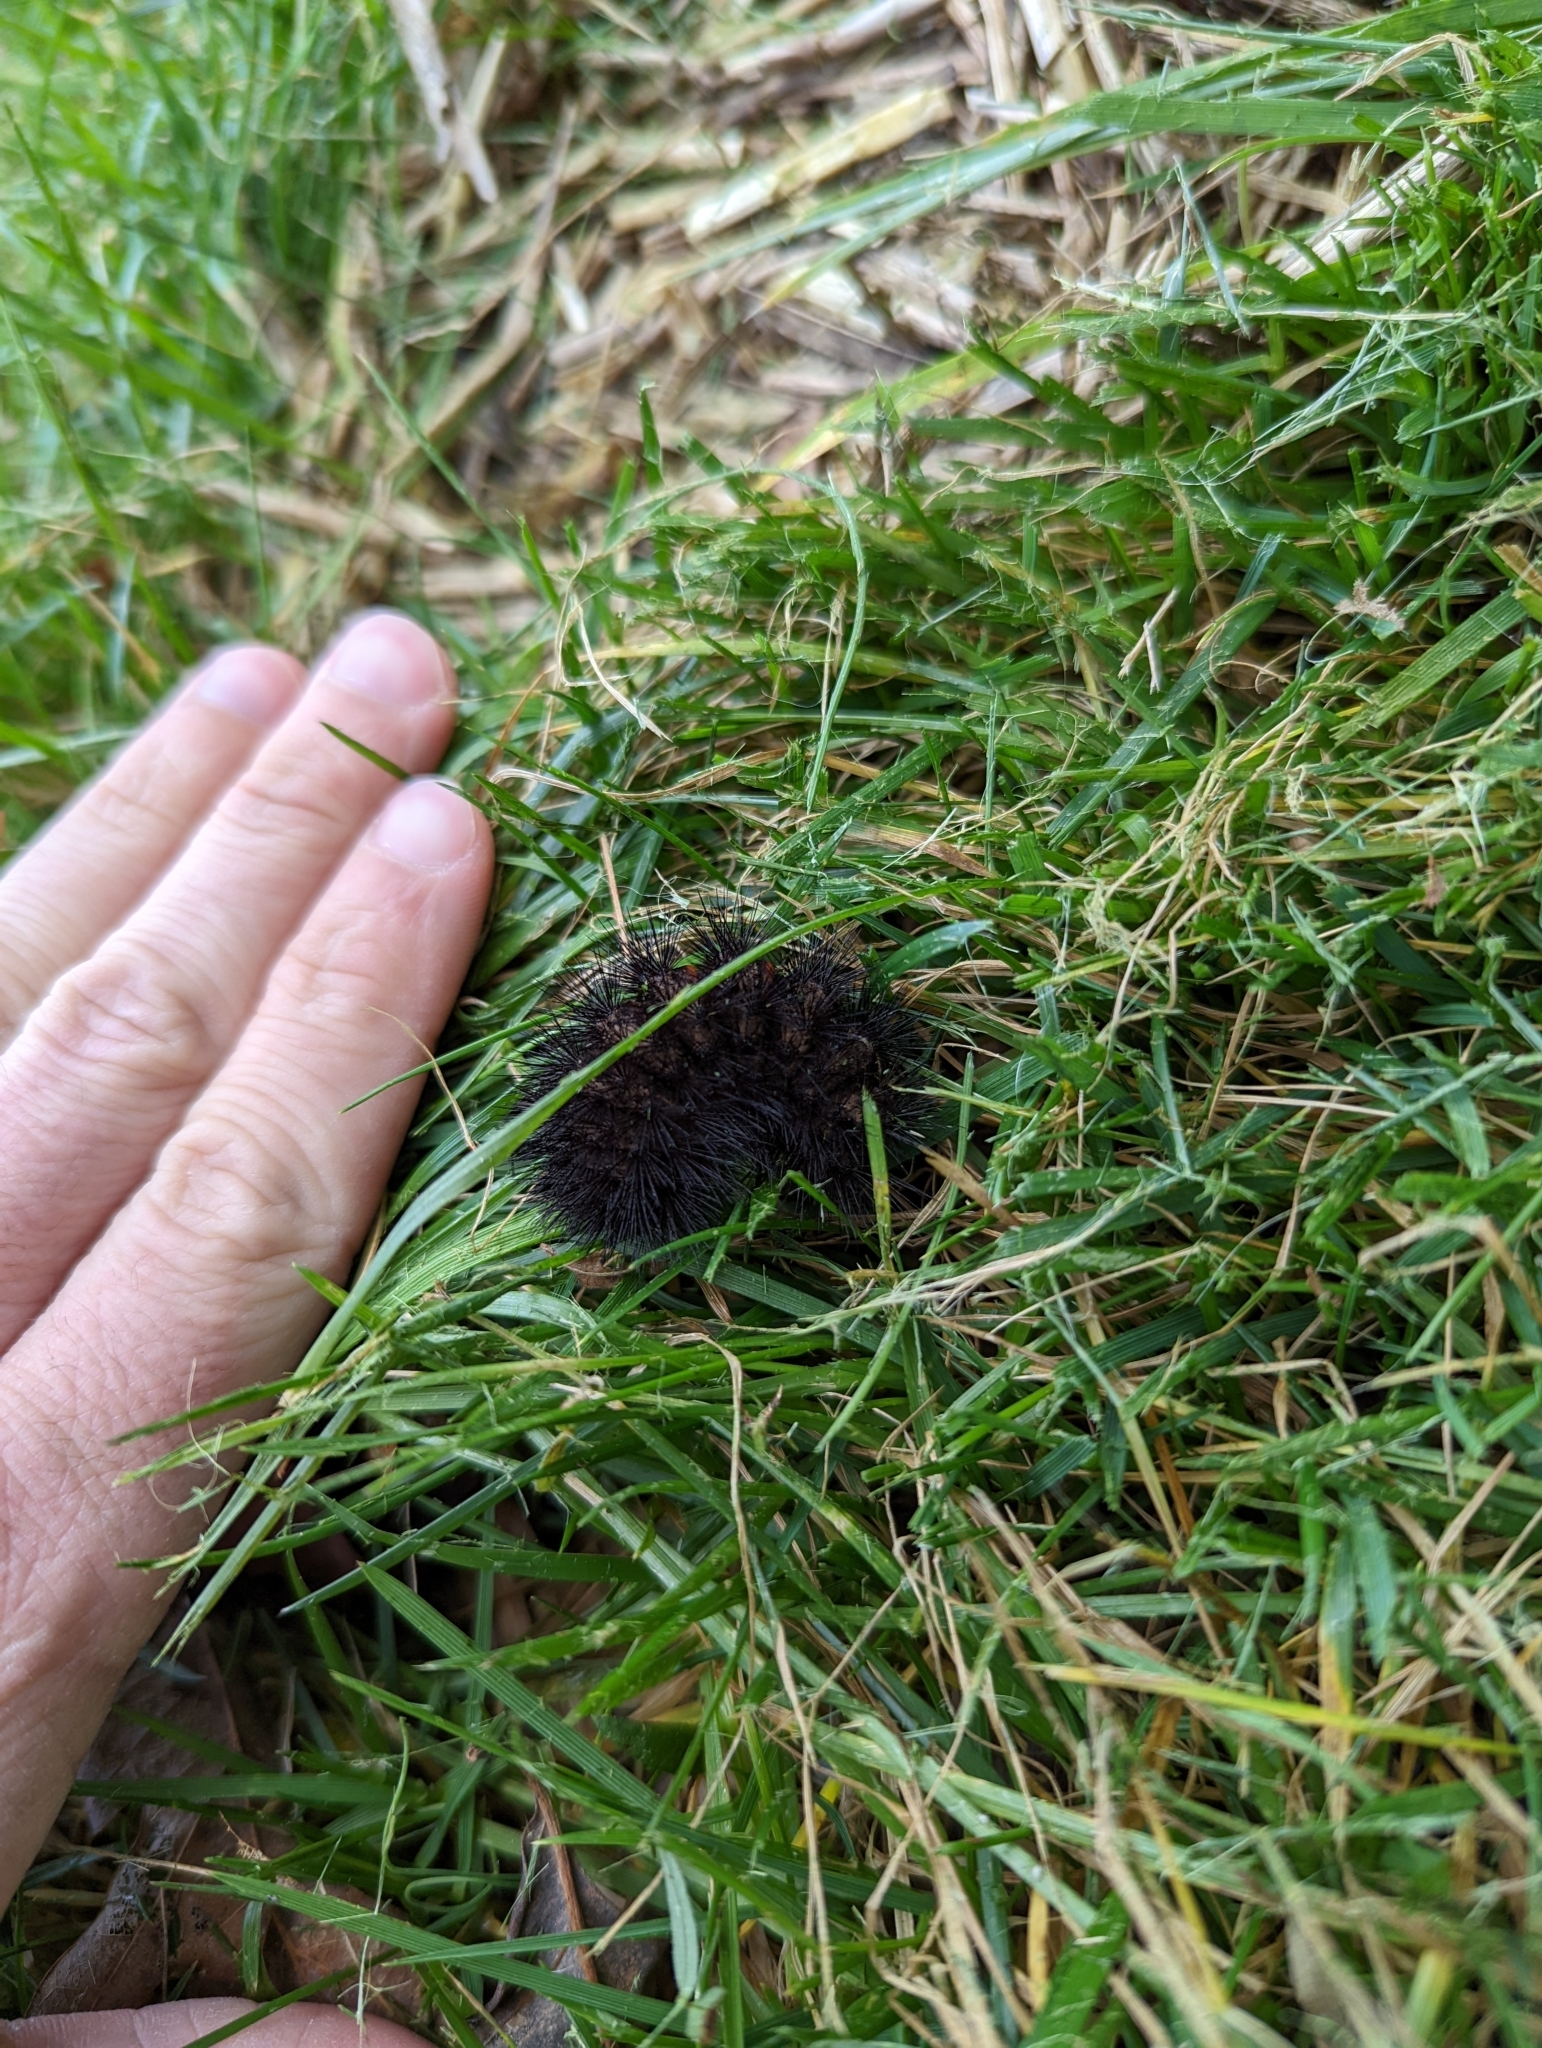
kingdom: Animalia
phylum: Arthropoda
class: Insecta
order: Lepidoptera
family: Erebidae
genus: Hypercompe
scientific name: Hypercompe scribonia
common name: Giant leopard moth
